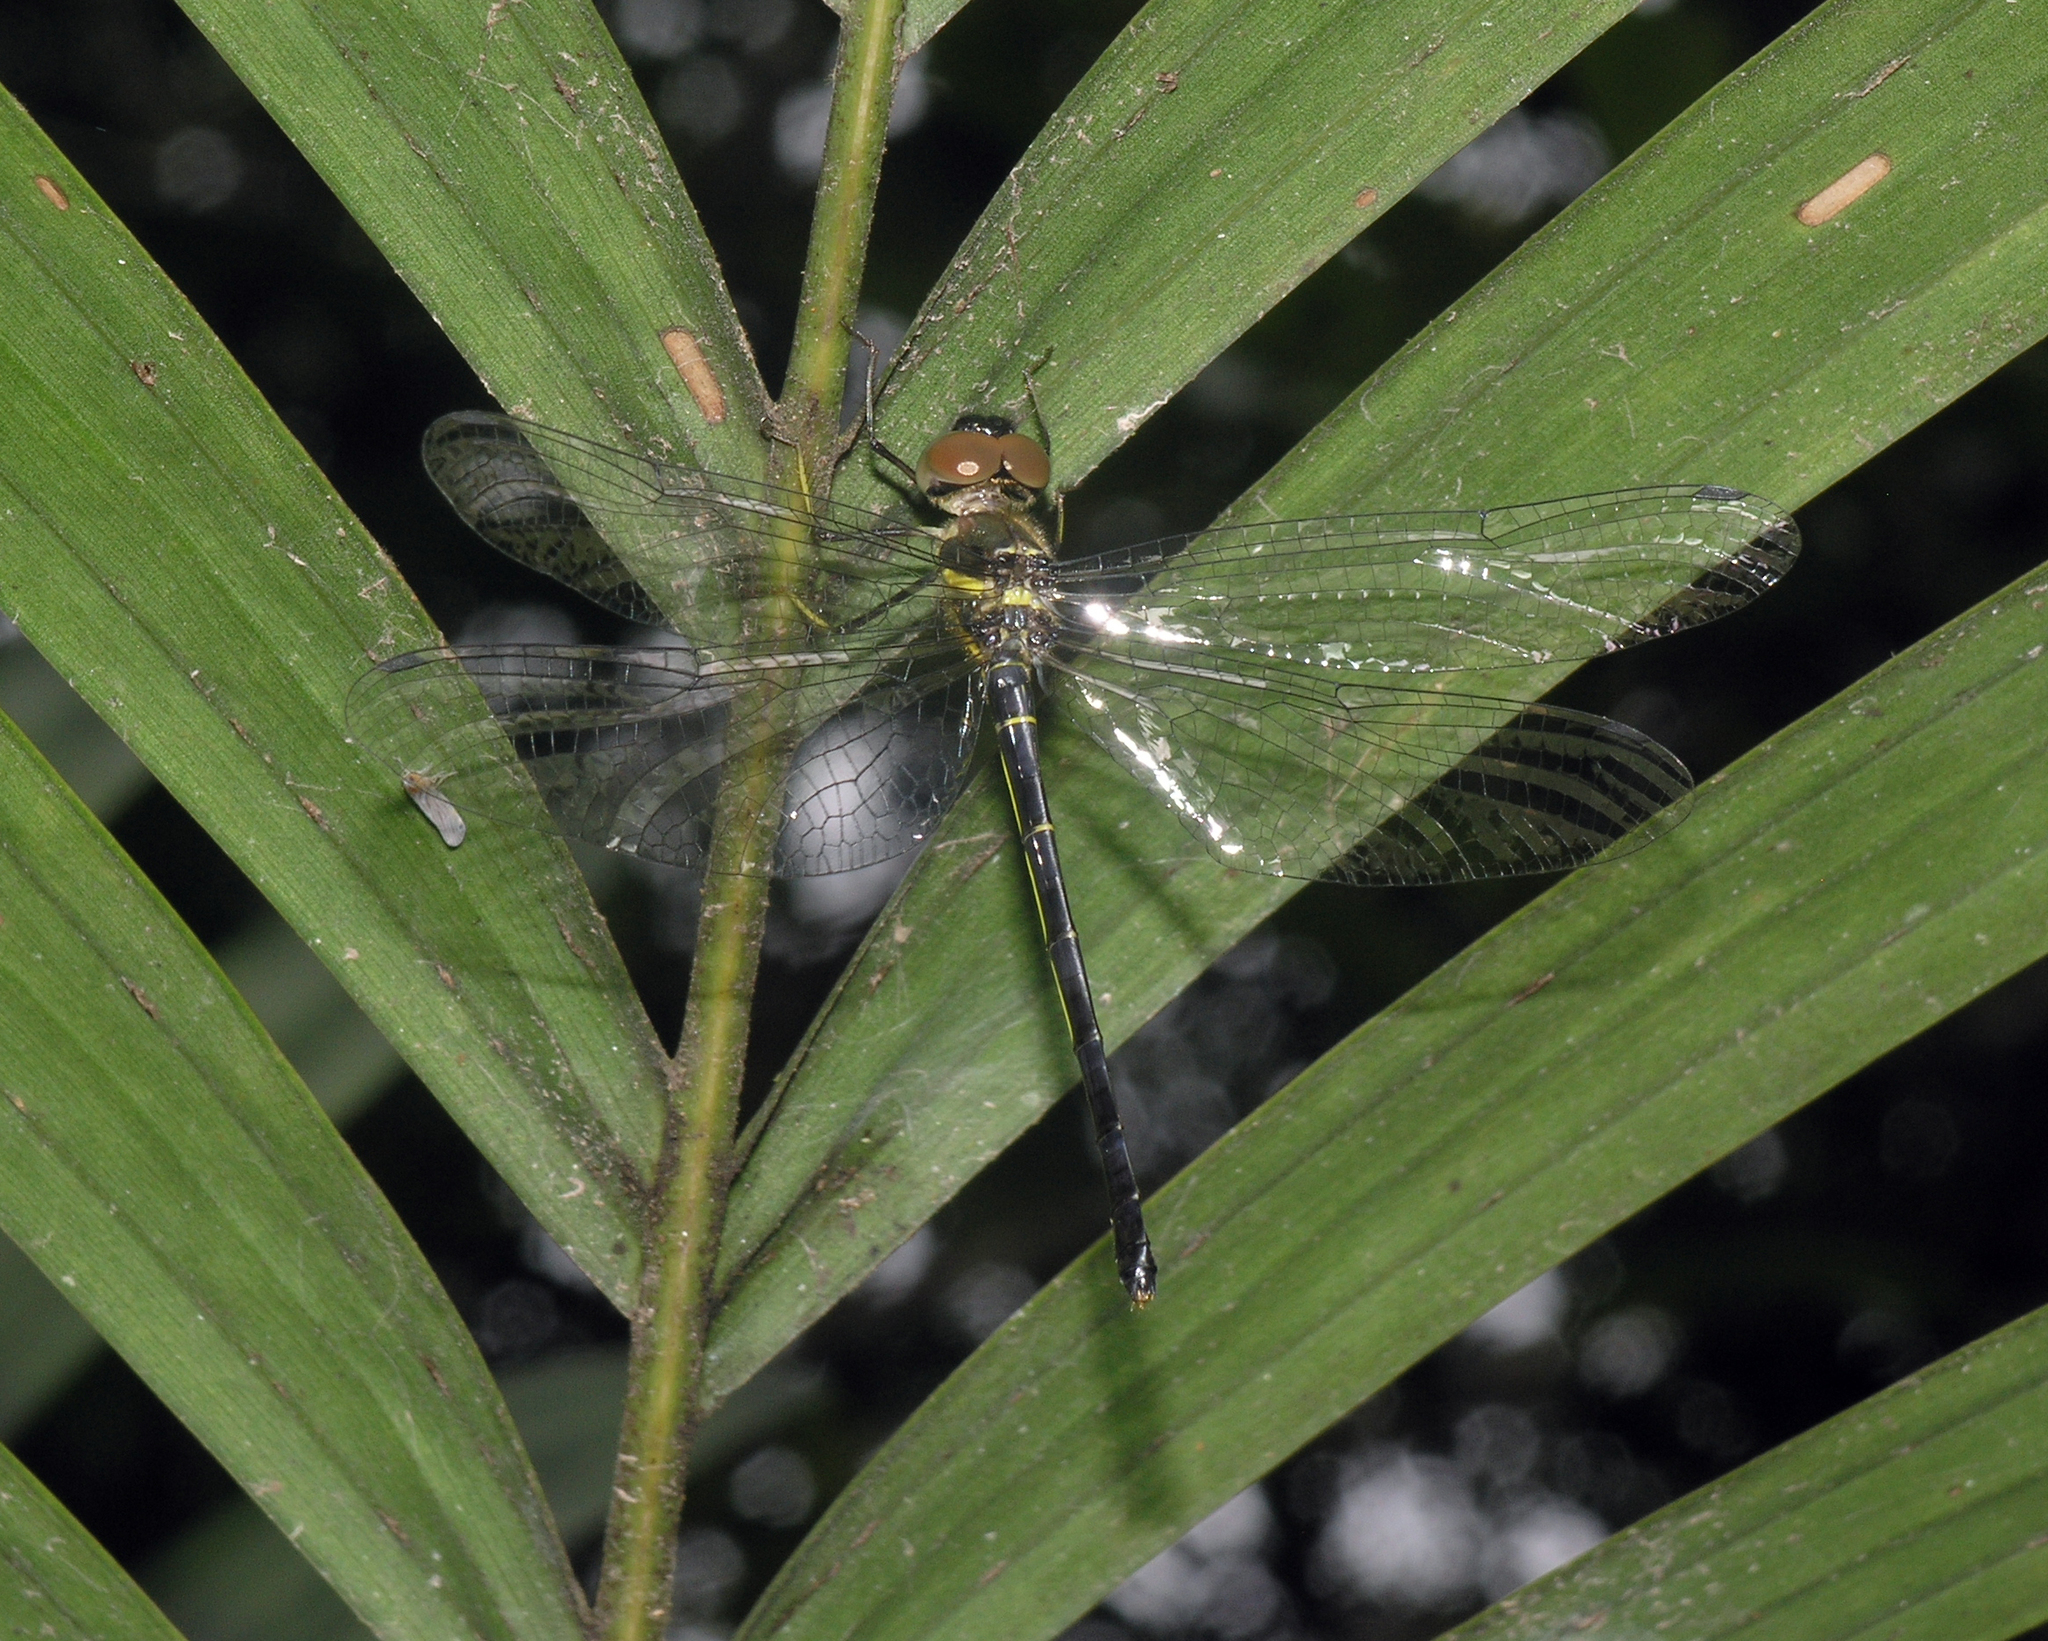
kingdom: Animalia
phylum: Arthropoda
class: Insecta
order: Odonata
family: Synthemistidae
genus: Idionyx
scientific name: Idionyx thailandicus
